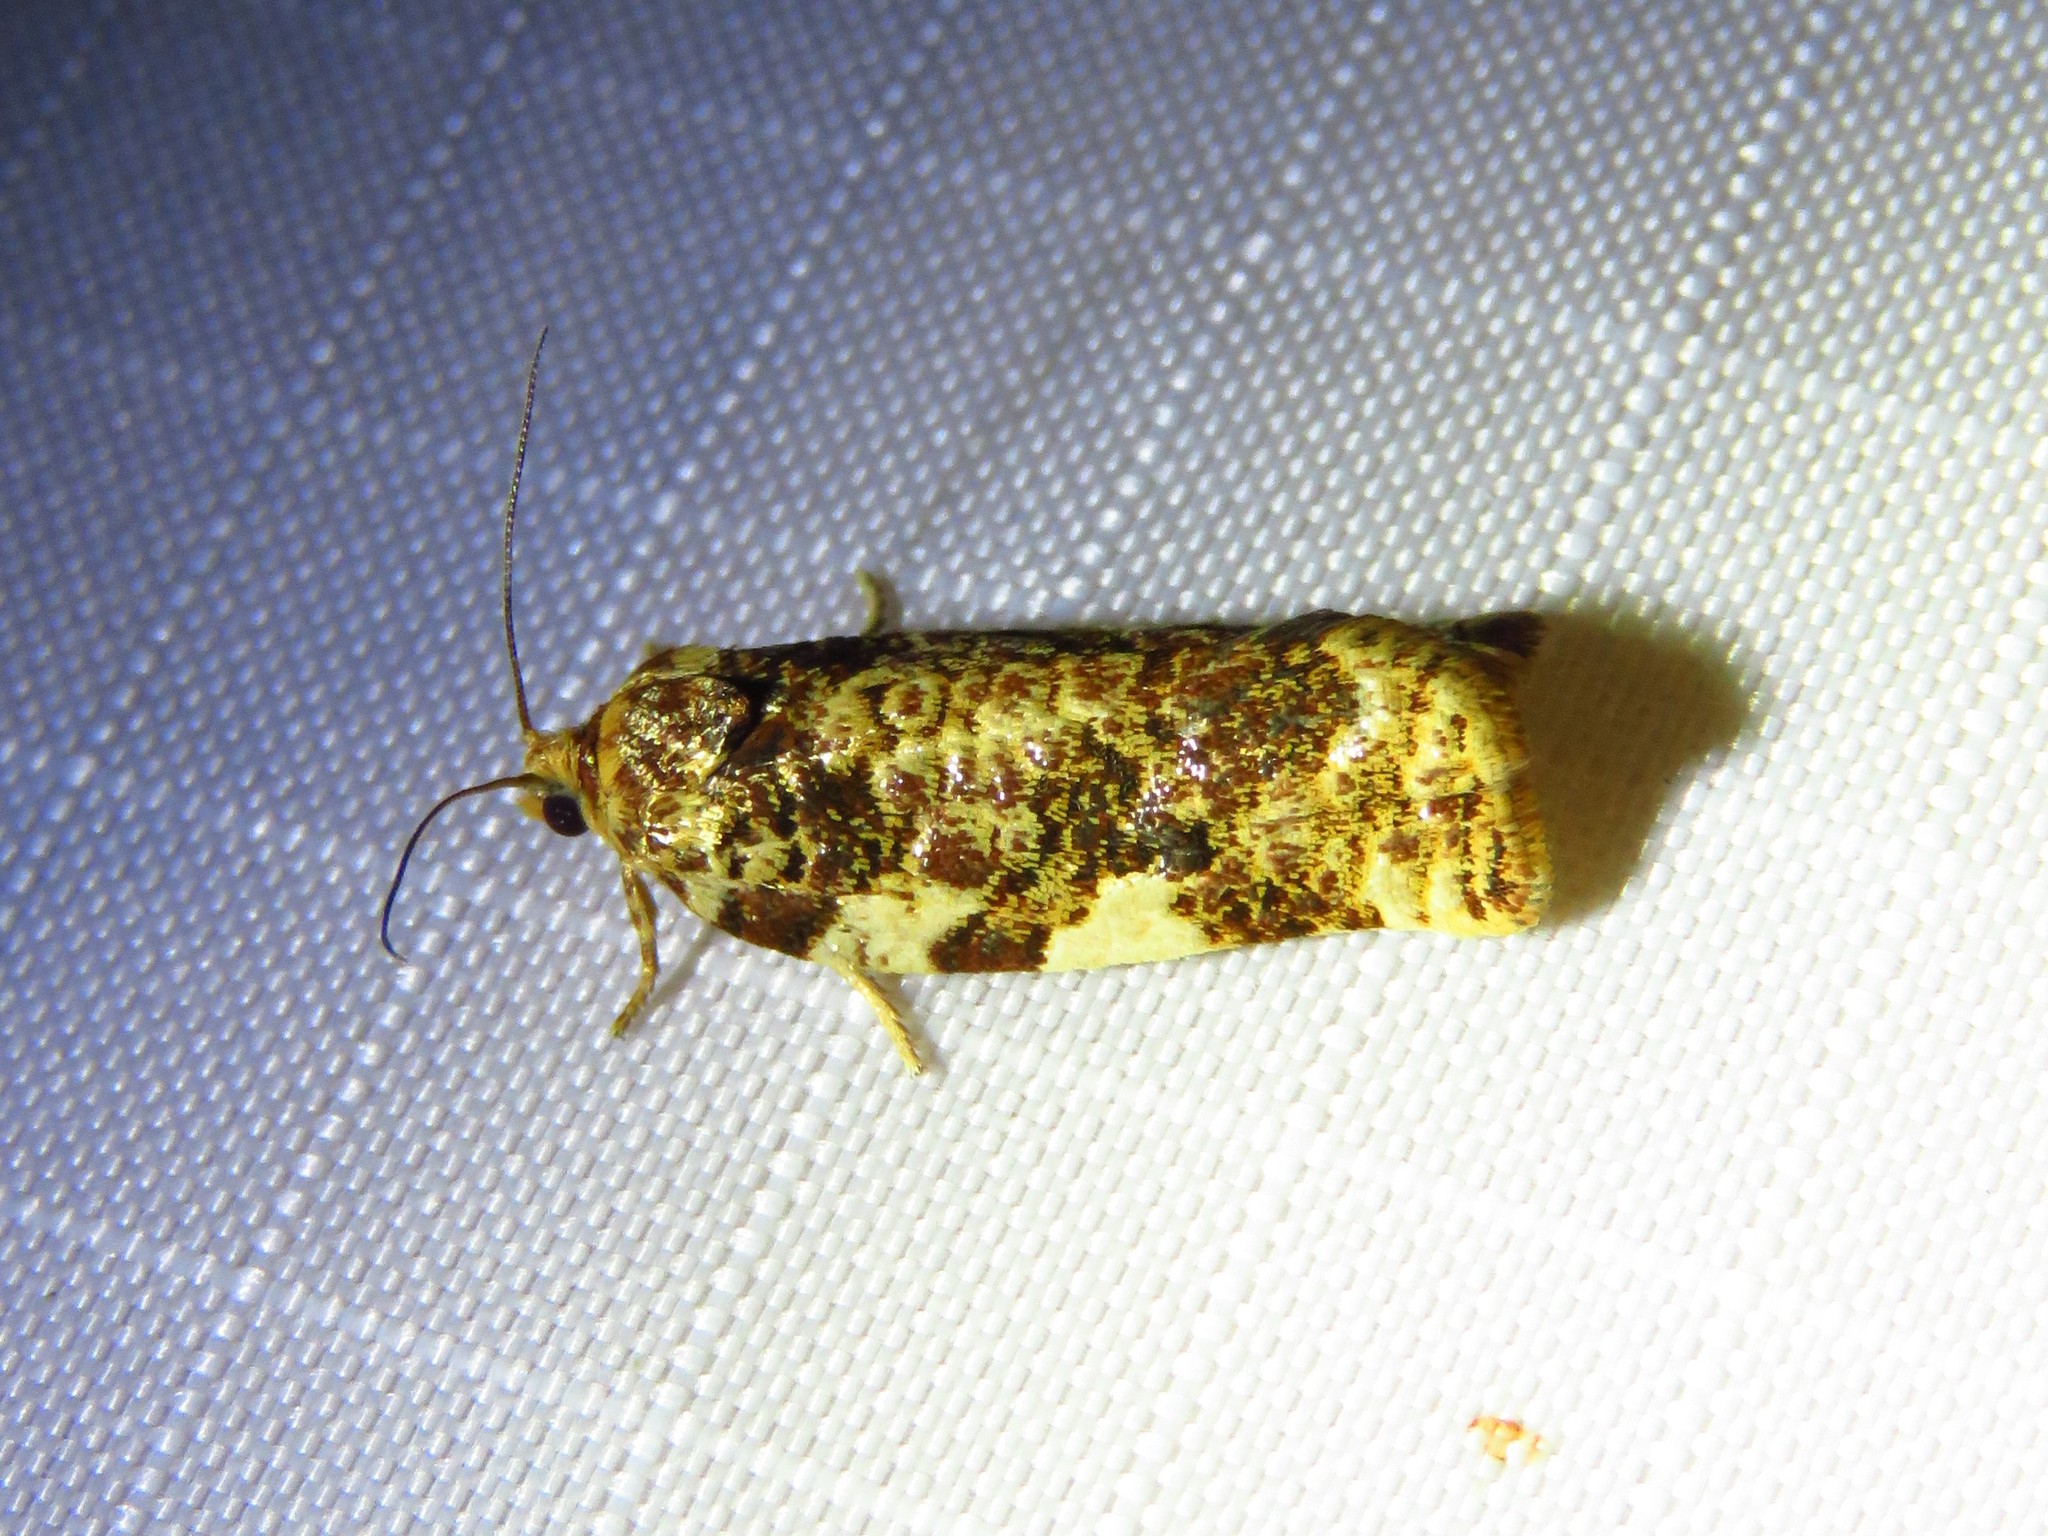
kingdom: Animalia
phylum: Arthropoda
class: Insecta
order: Lepidoptera
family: Tortricidae
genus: Archips
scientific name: Archips argyrospila
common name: Fruit-tree leafroller moth
